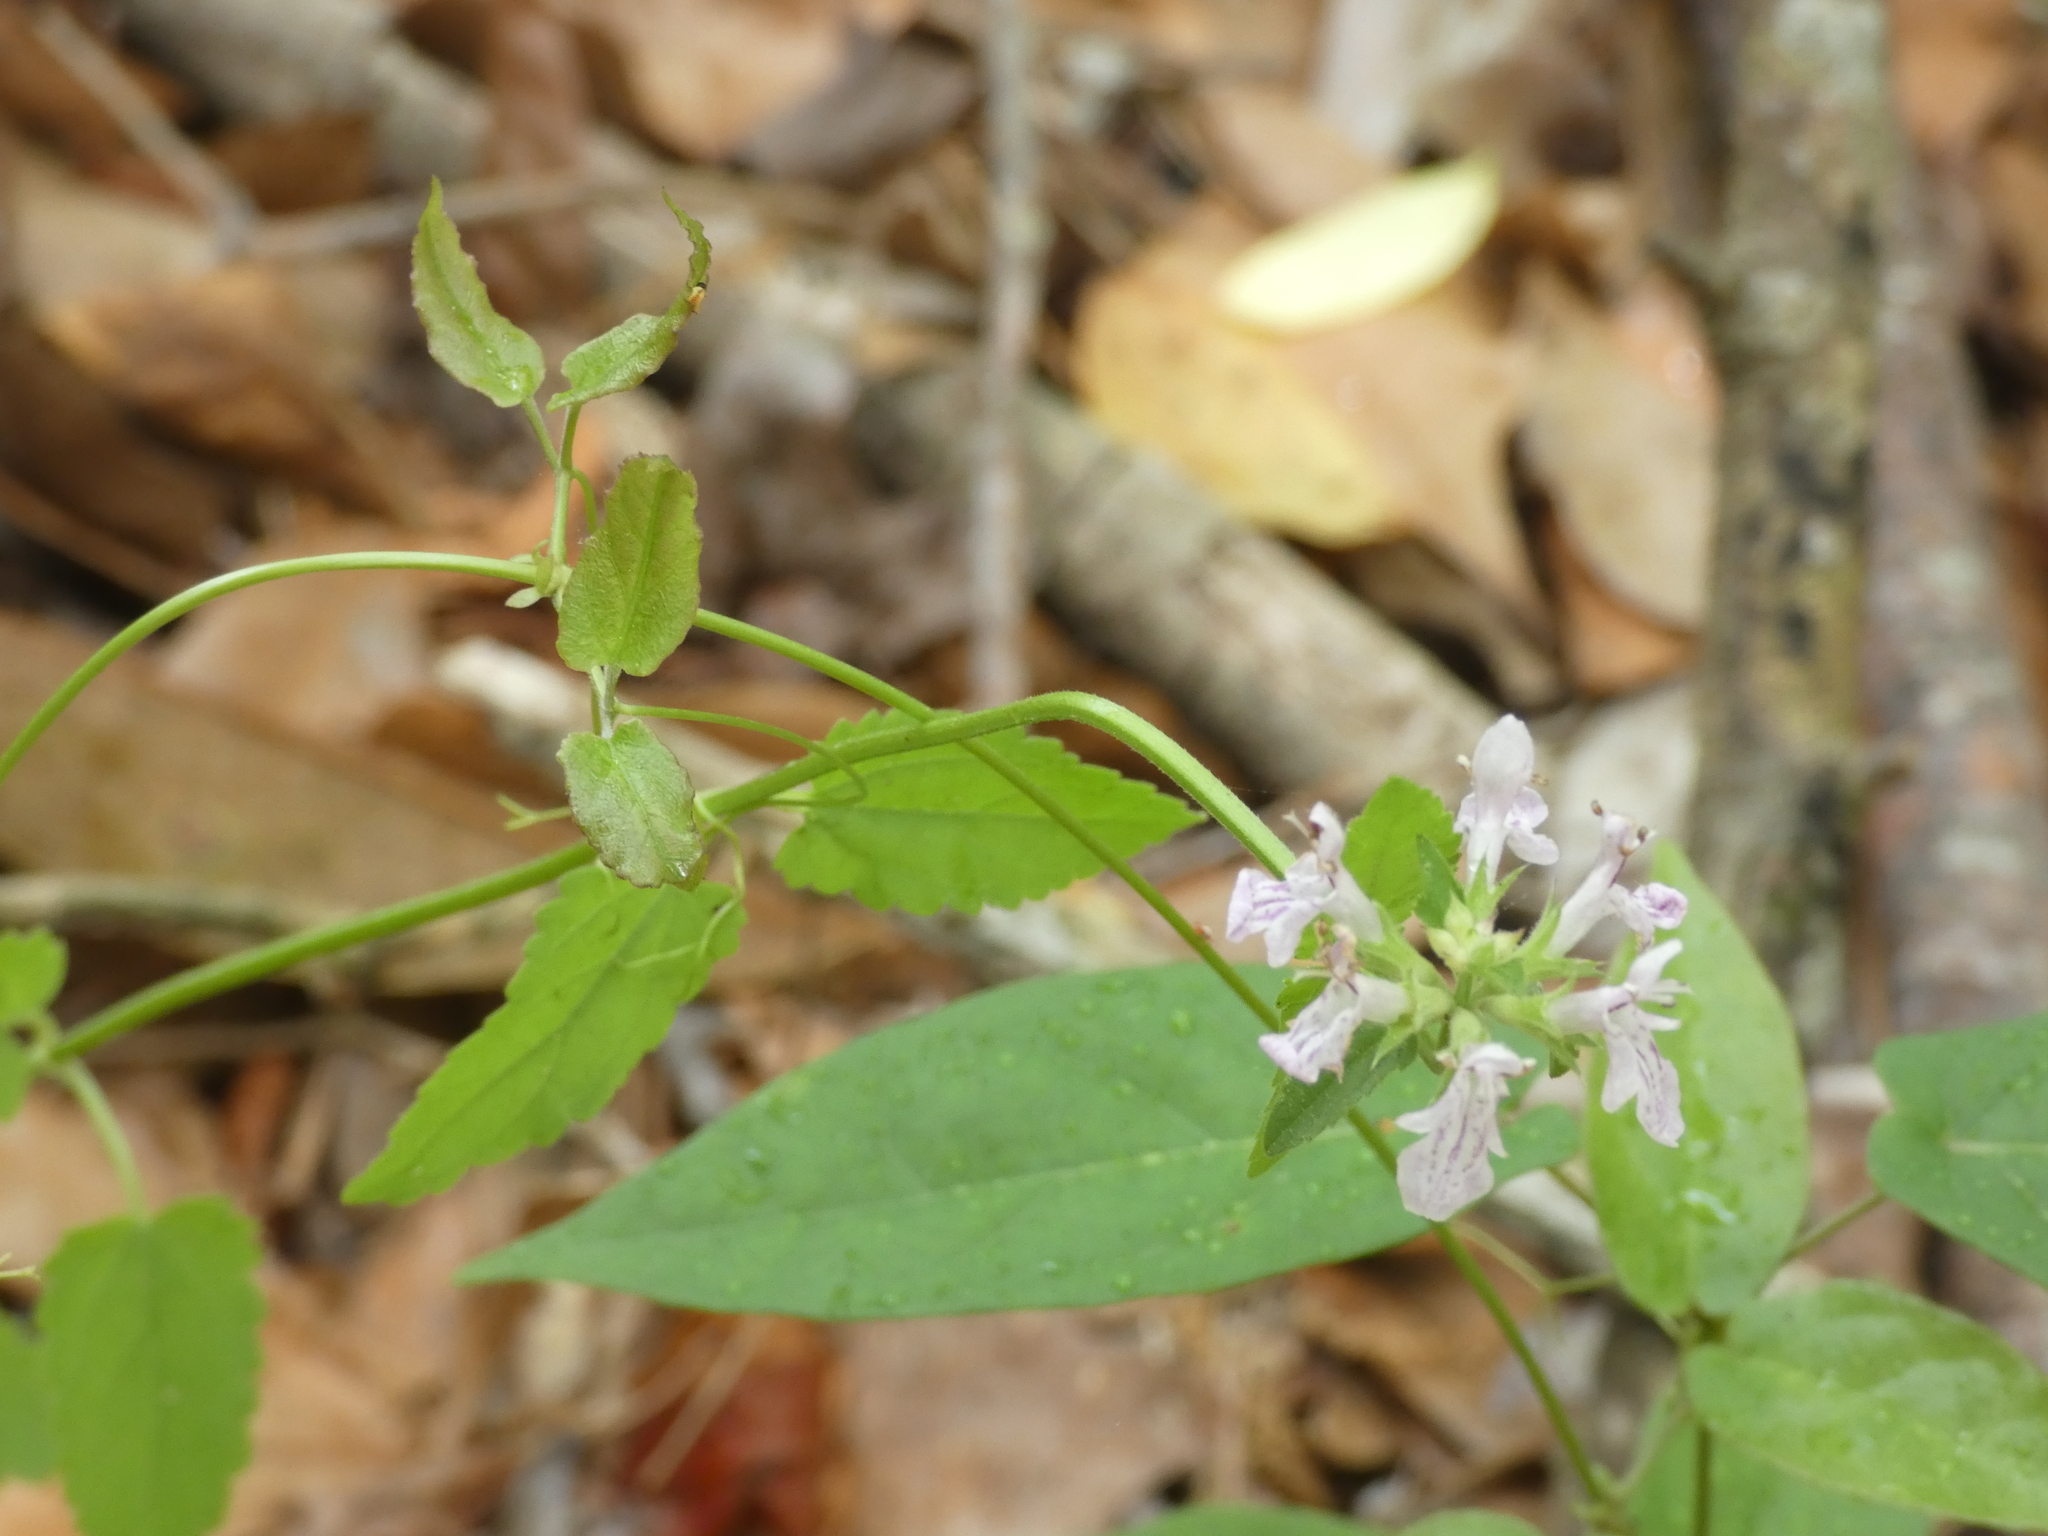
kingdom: Plantae
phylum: Tracheophyta
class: Magnoliopsida
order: Lamiales
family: Lamiaceae
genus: Stachys
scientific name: Stachys floridana
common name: Florida betony
